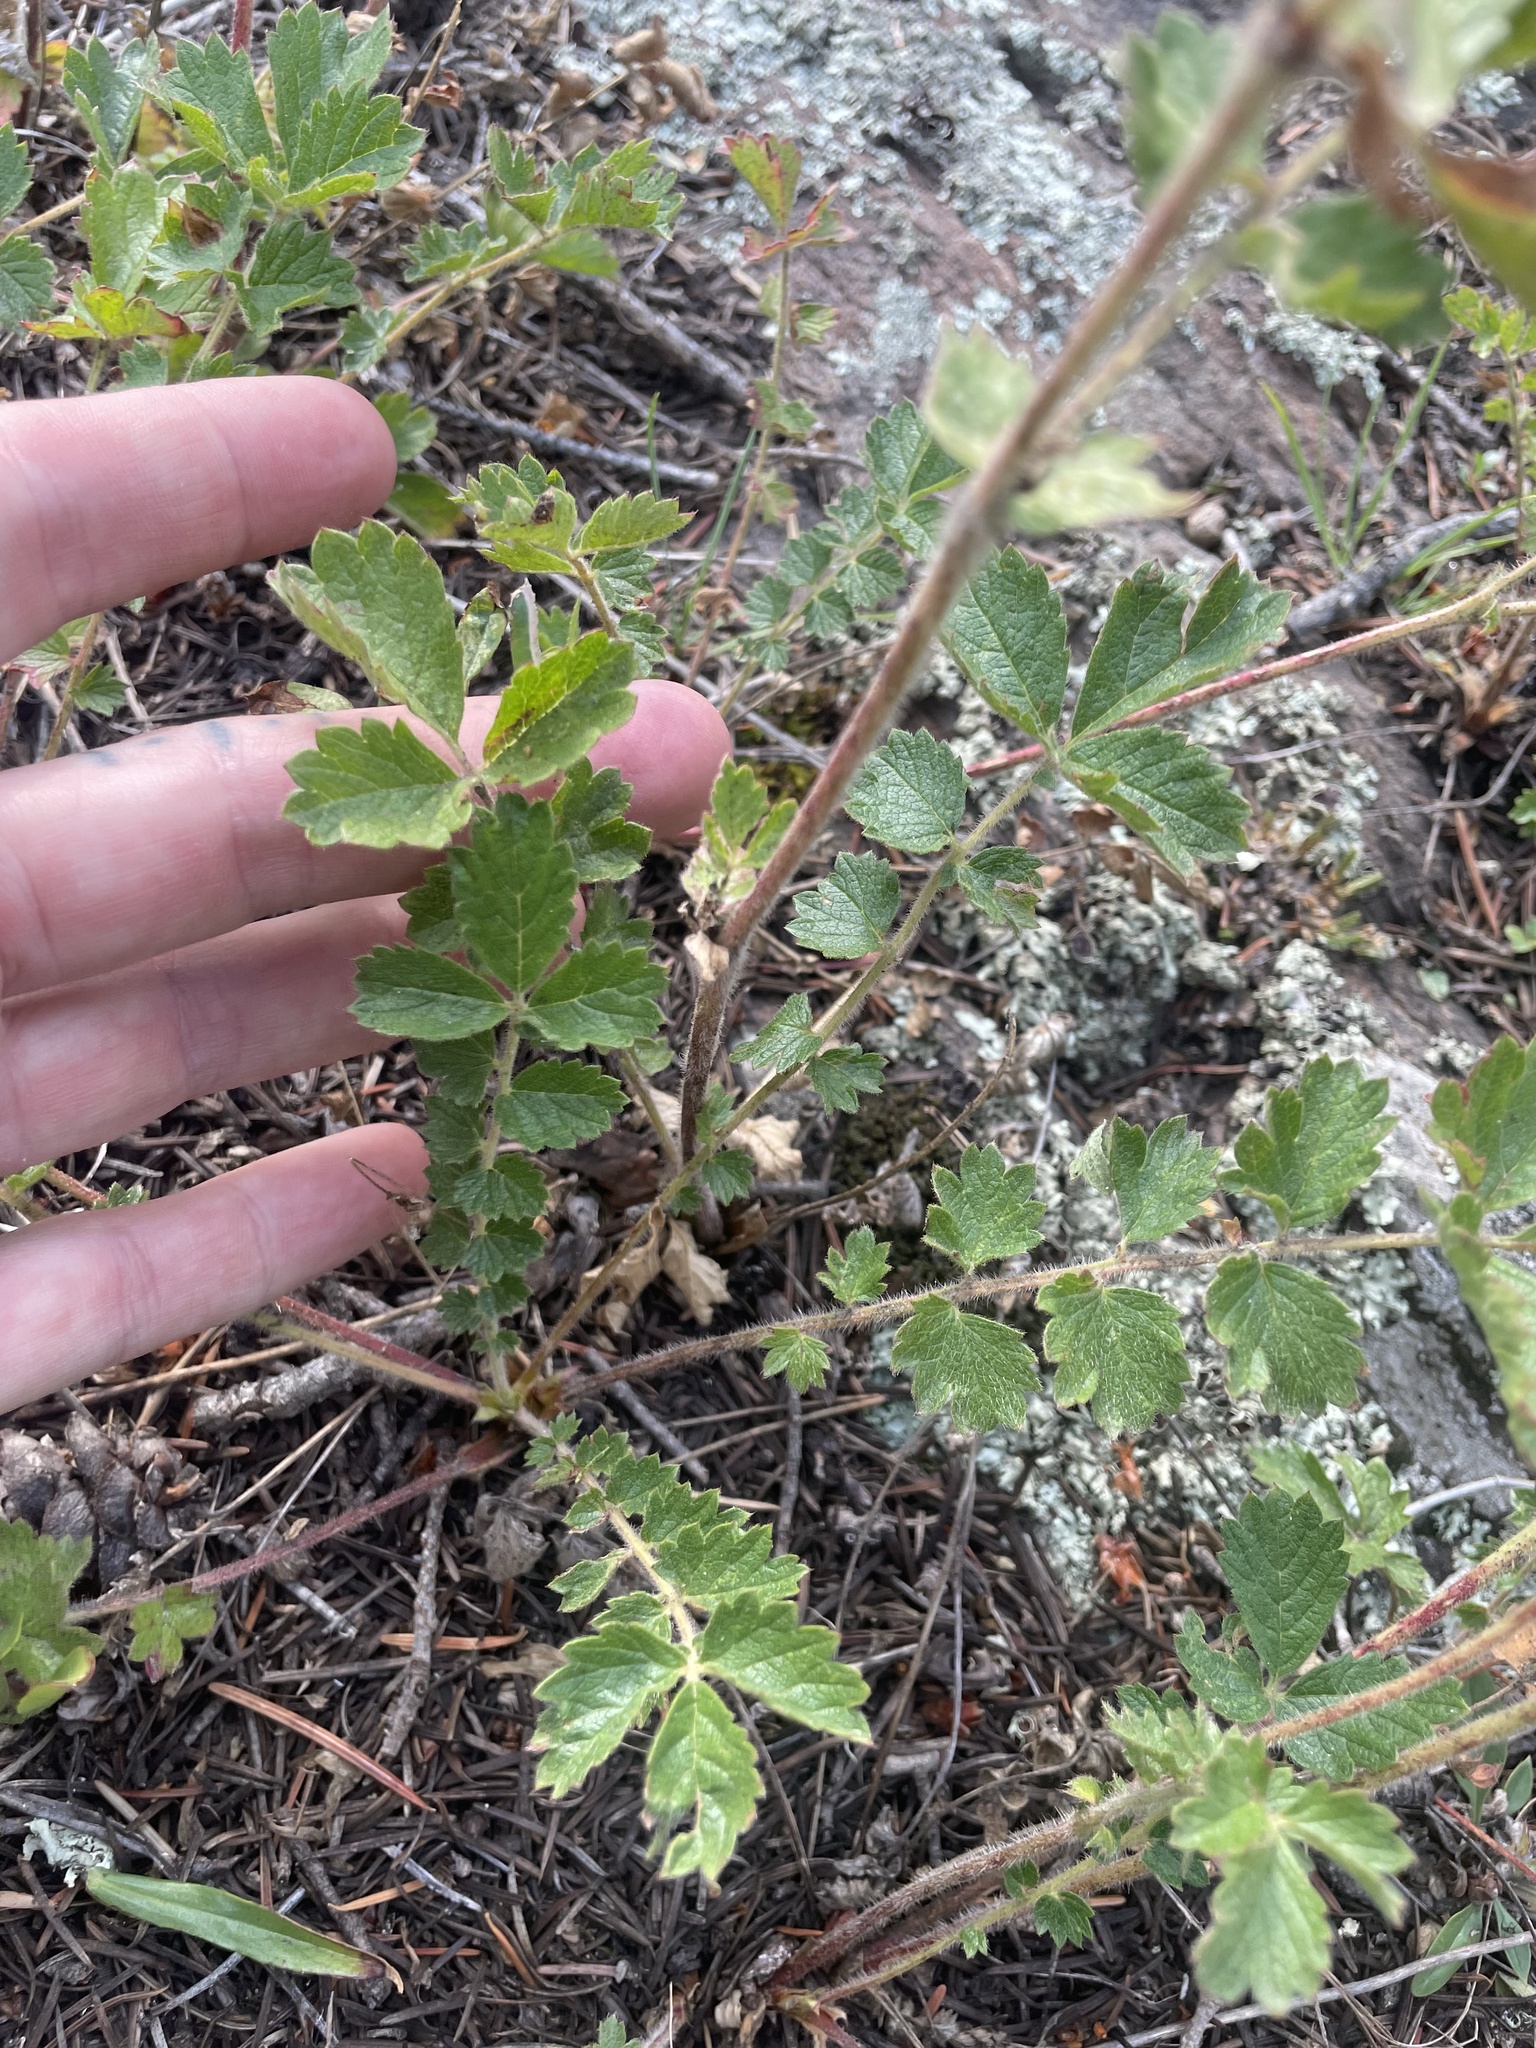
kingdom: Plantae
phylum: Tracheophyta
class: Magnoliopsida
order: Rosales
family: Rosaceae
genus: Drymocallis
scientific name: Drymocallis fissa
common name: Big-flowered cinquefoil
